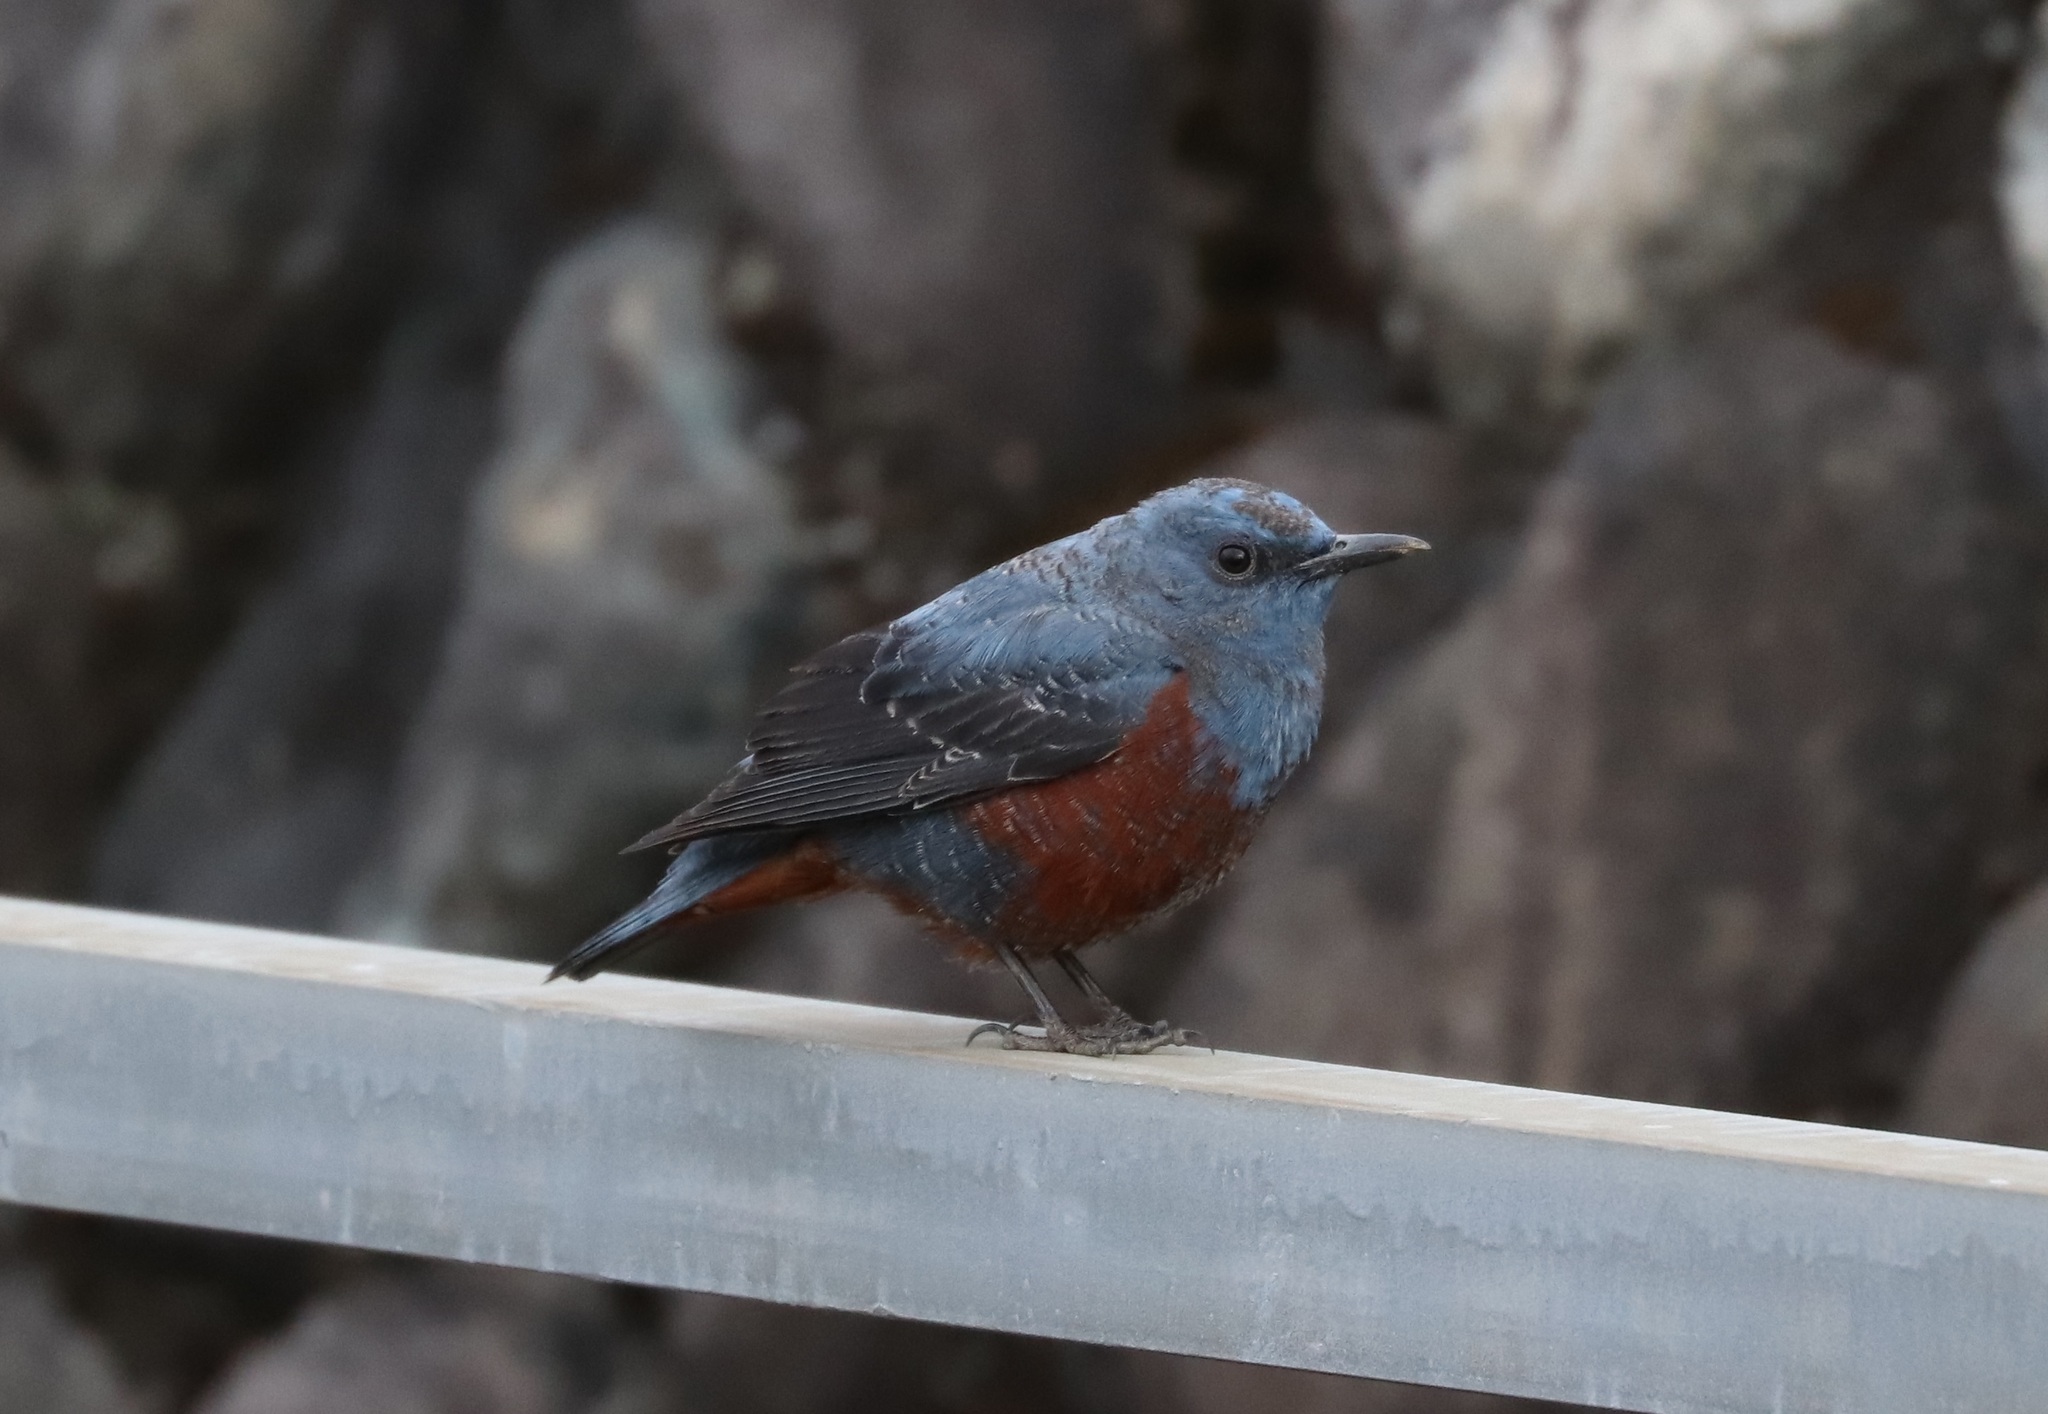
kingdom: Animalia
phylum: Chordata
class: Aves
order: Passeriformes
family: Muscicapidae
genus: Monticola
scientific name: Monticola solitarius
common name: Blue rock thrush
